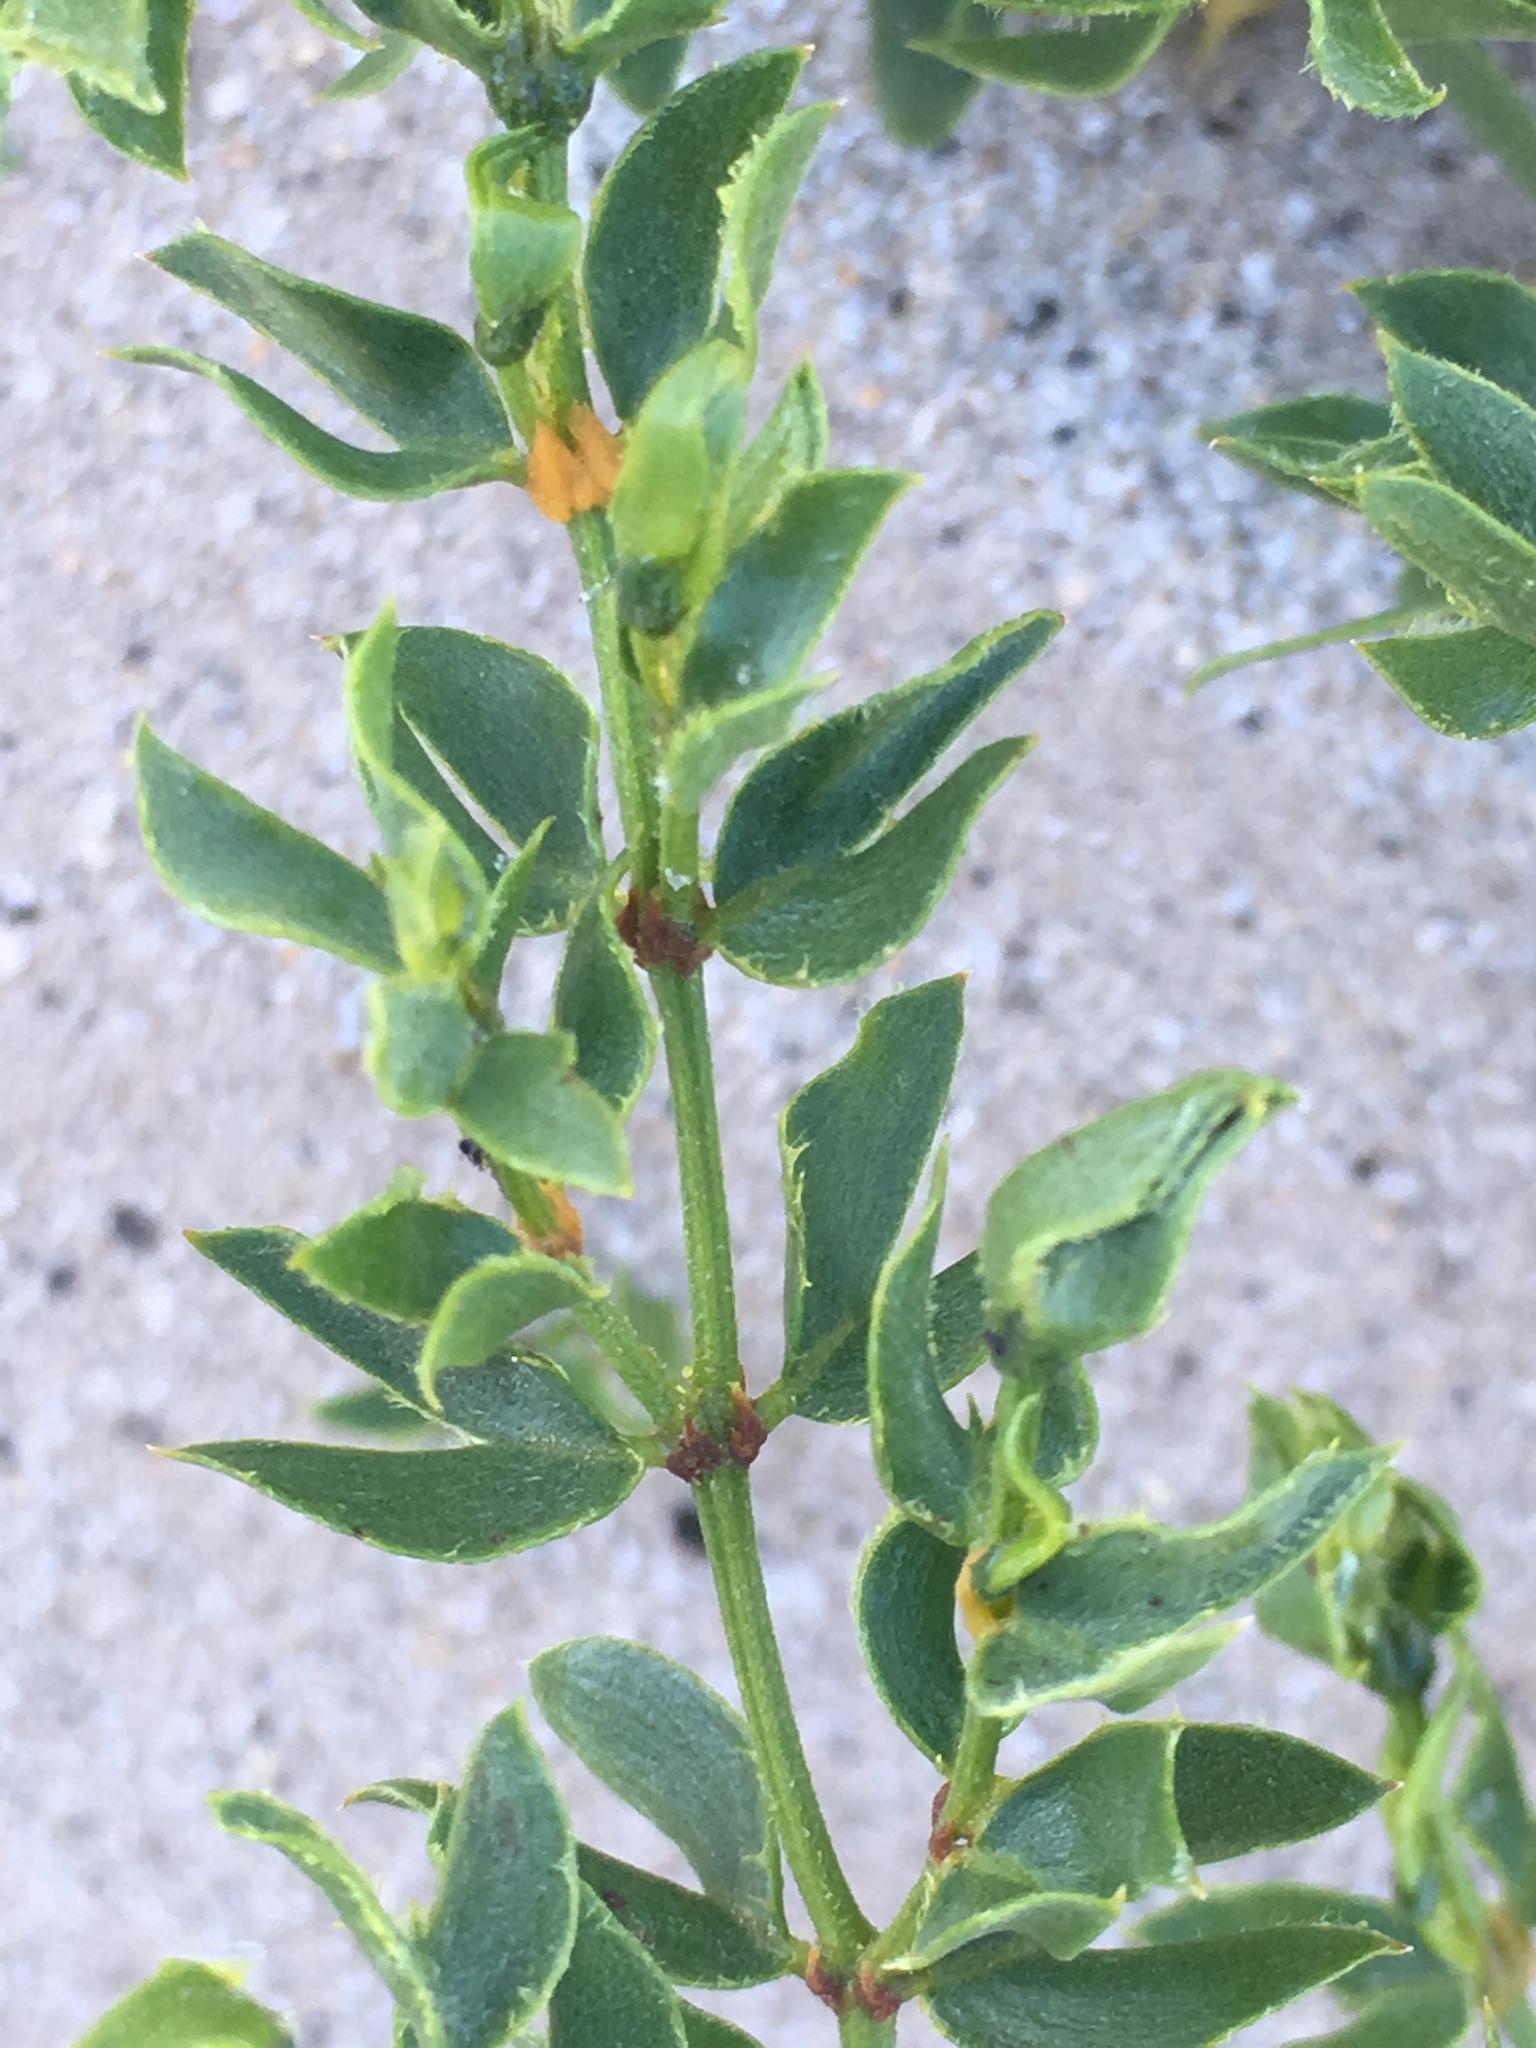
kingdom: Plantae
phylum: Tracheophyta
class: Magnoliopsida
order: Zygophyllales
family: Zygophyllaceae
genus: Larrea
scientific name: Larrea tridentata
